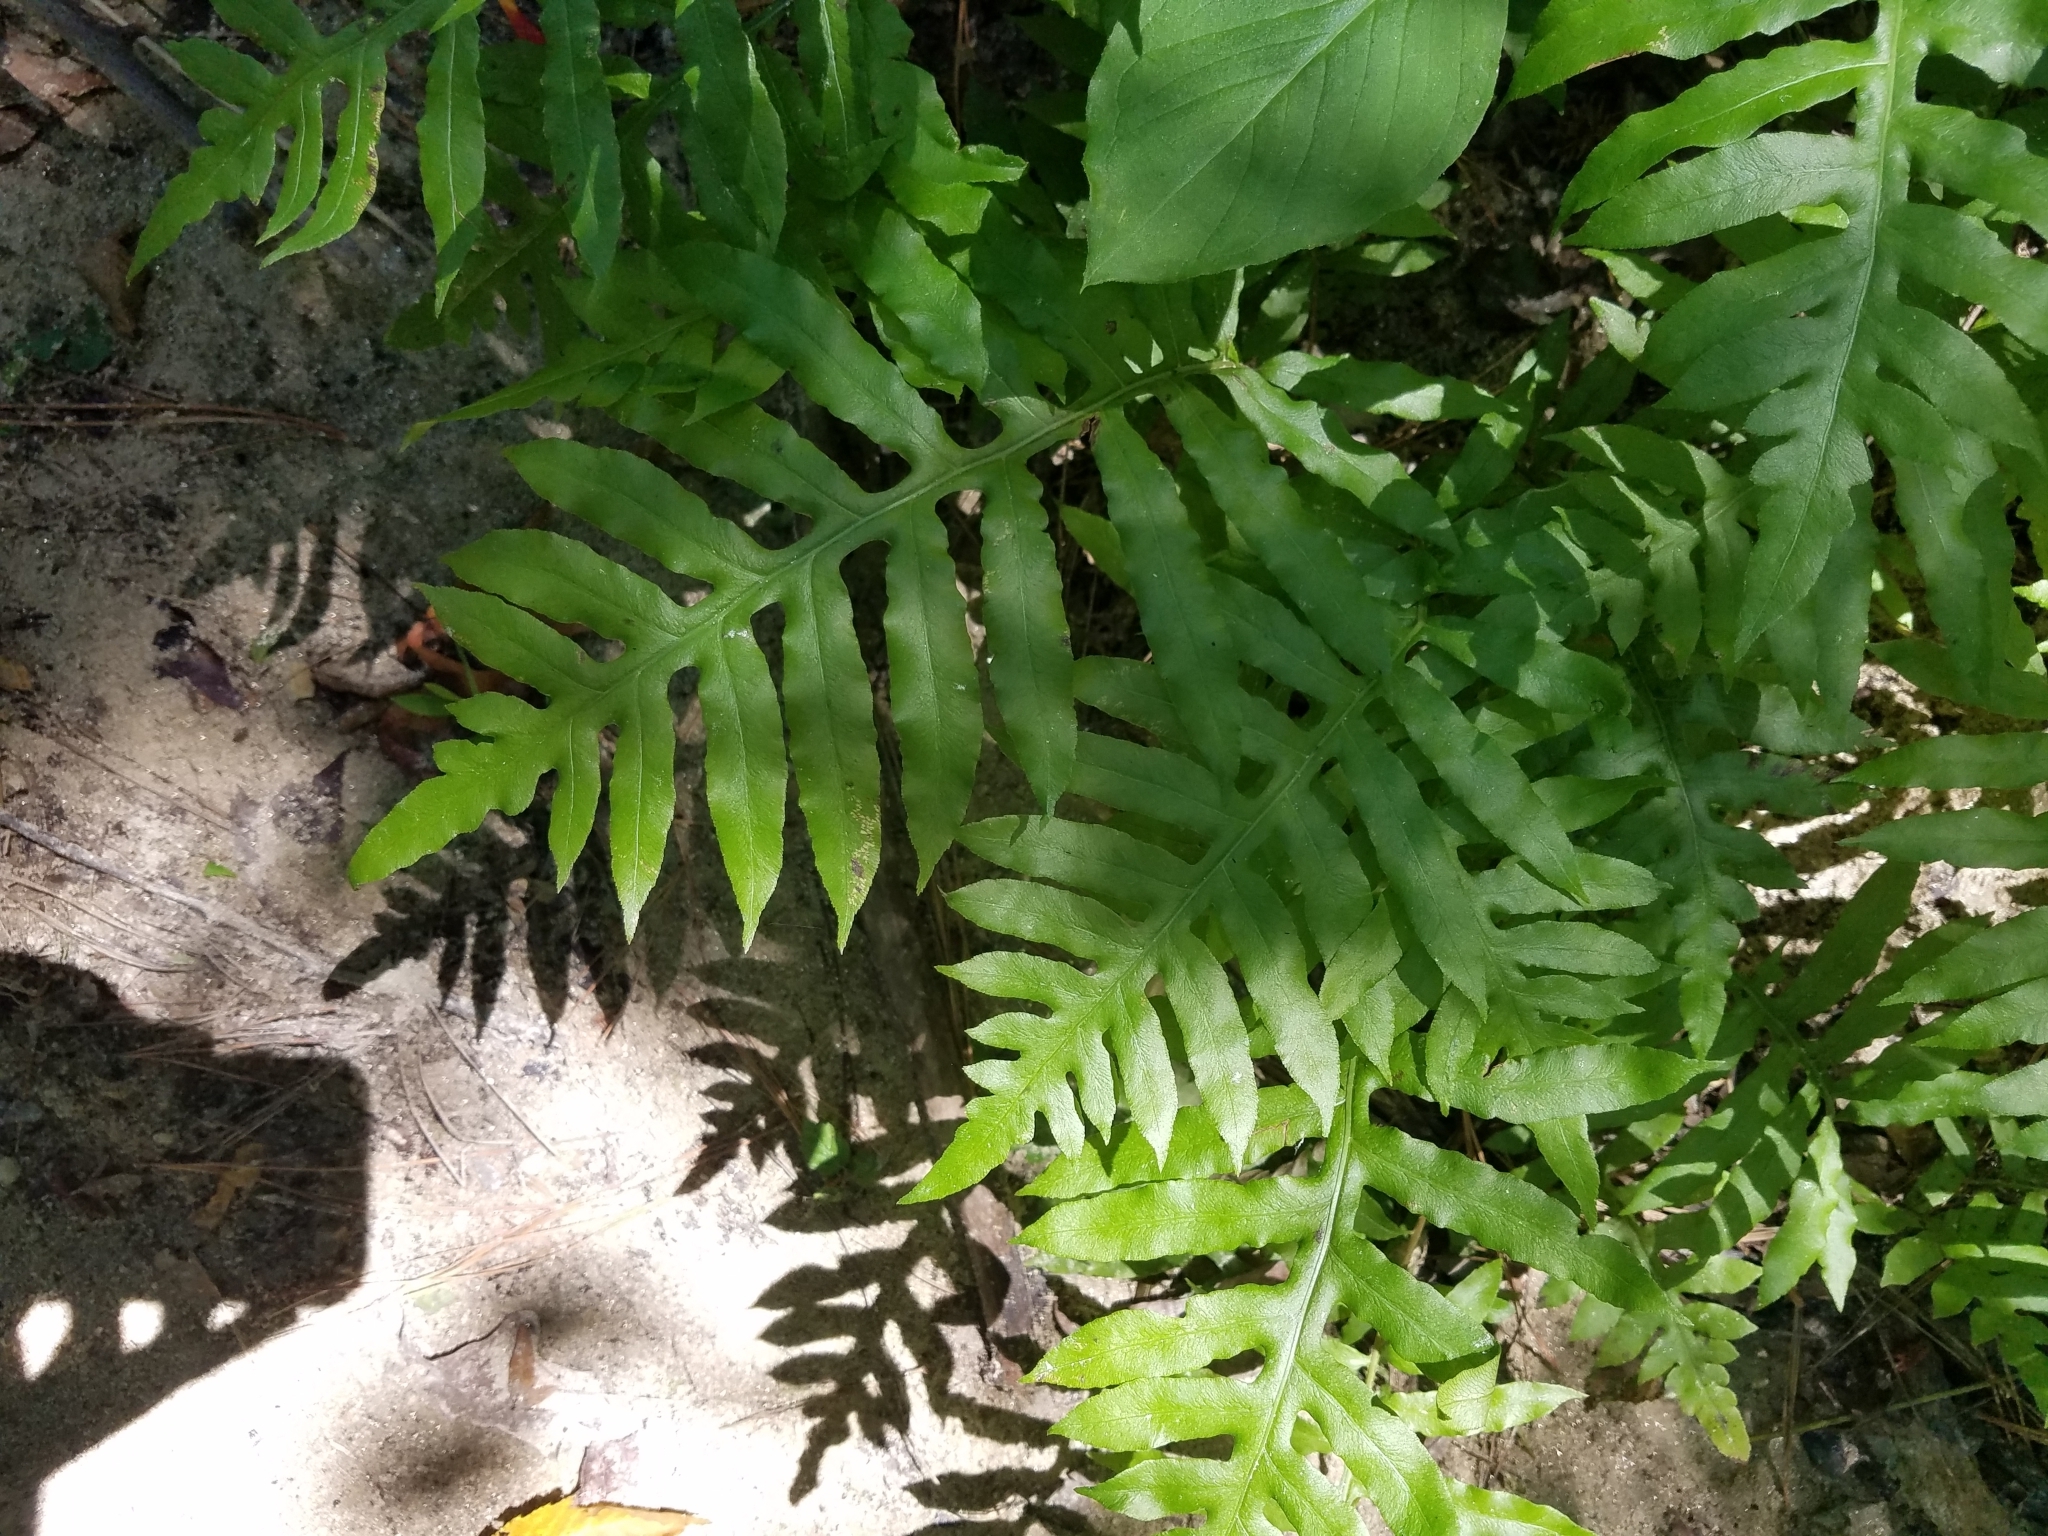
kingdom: Plantae
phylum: Tracheophyta
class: Polypodiopsida
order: Polypodiales
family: Blechnaceae
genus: Lorinseria
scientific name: Lorinseria areolata
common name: Dwarf chain fern
